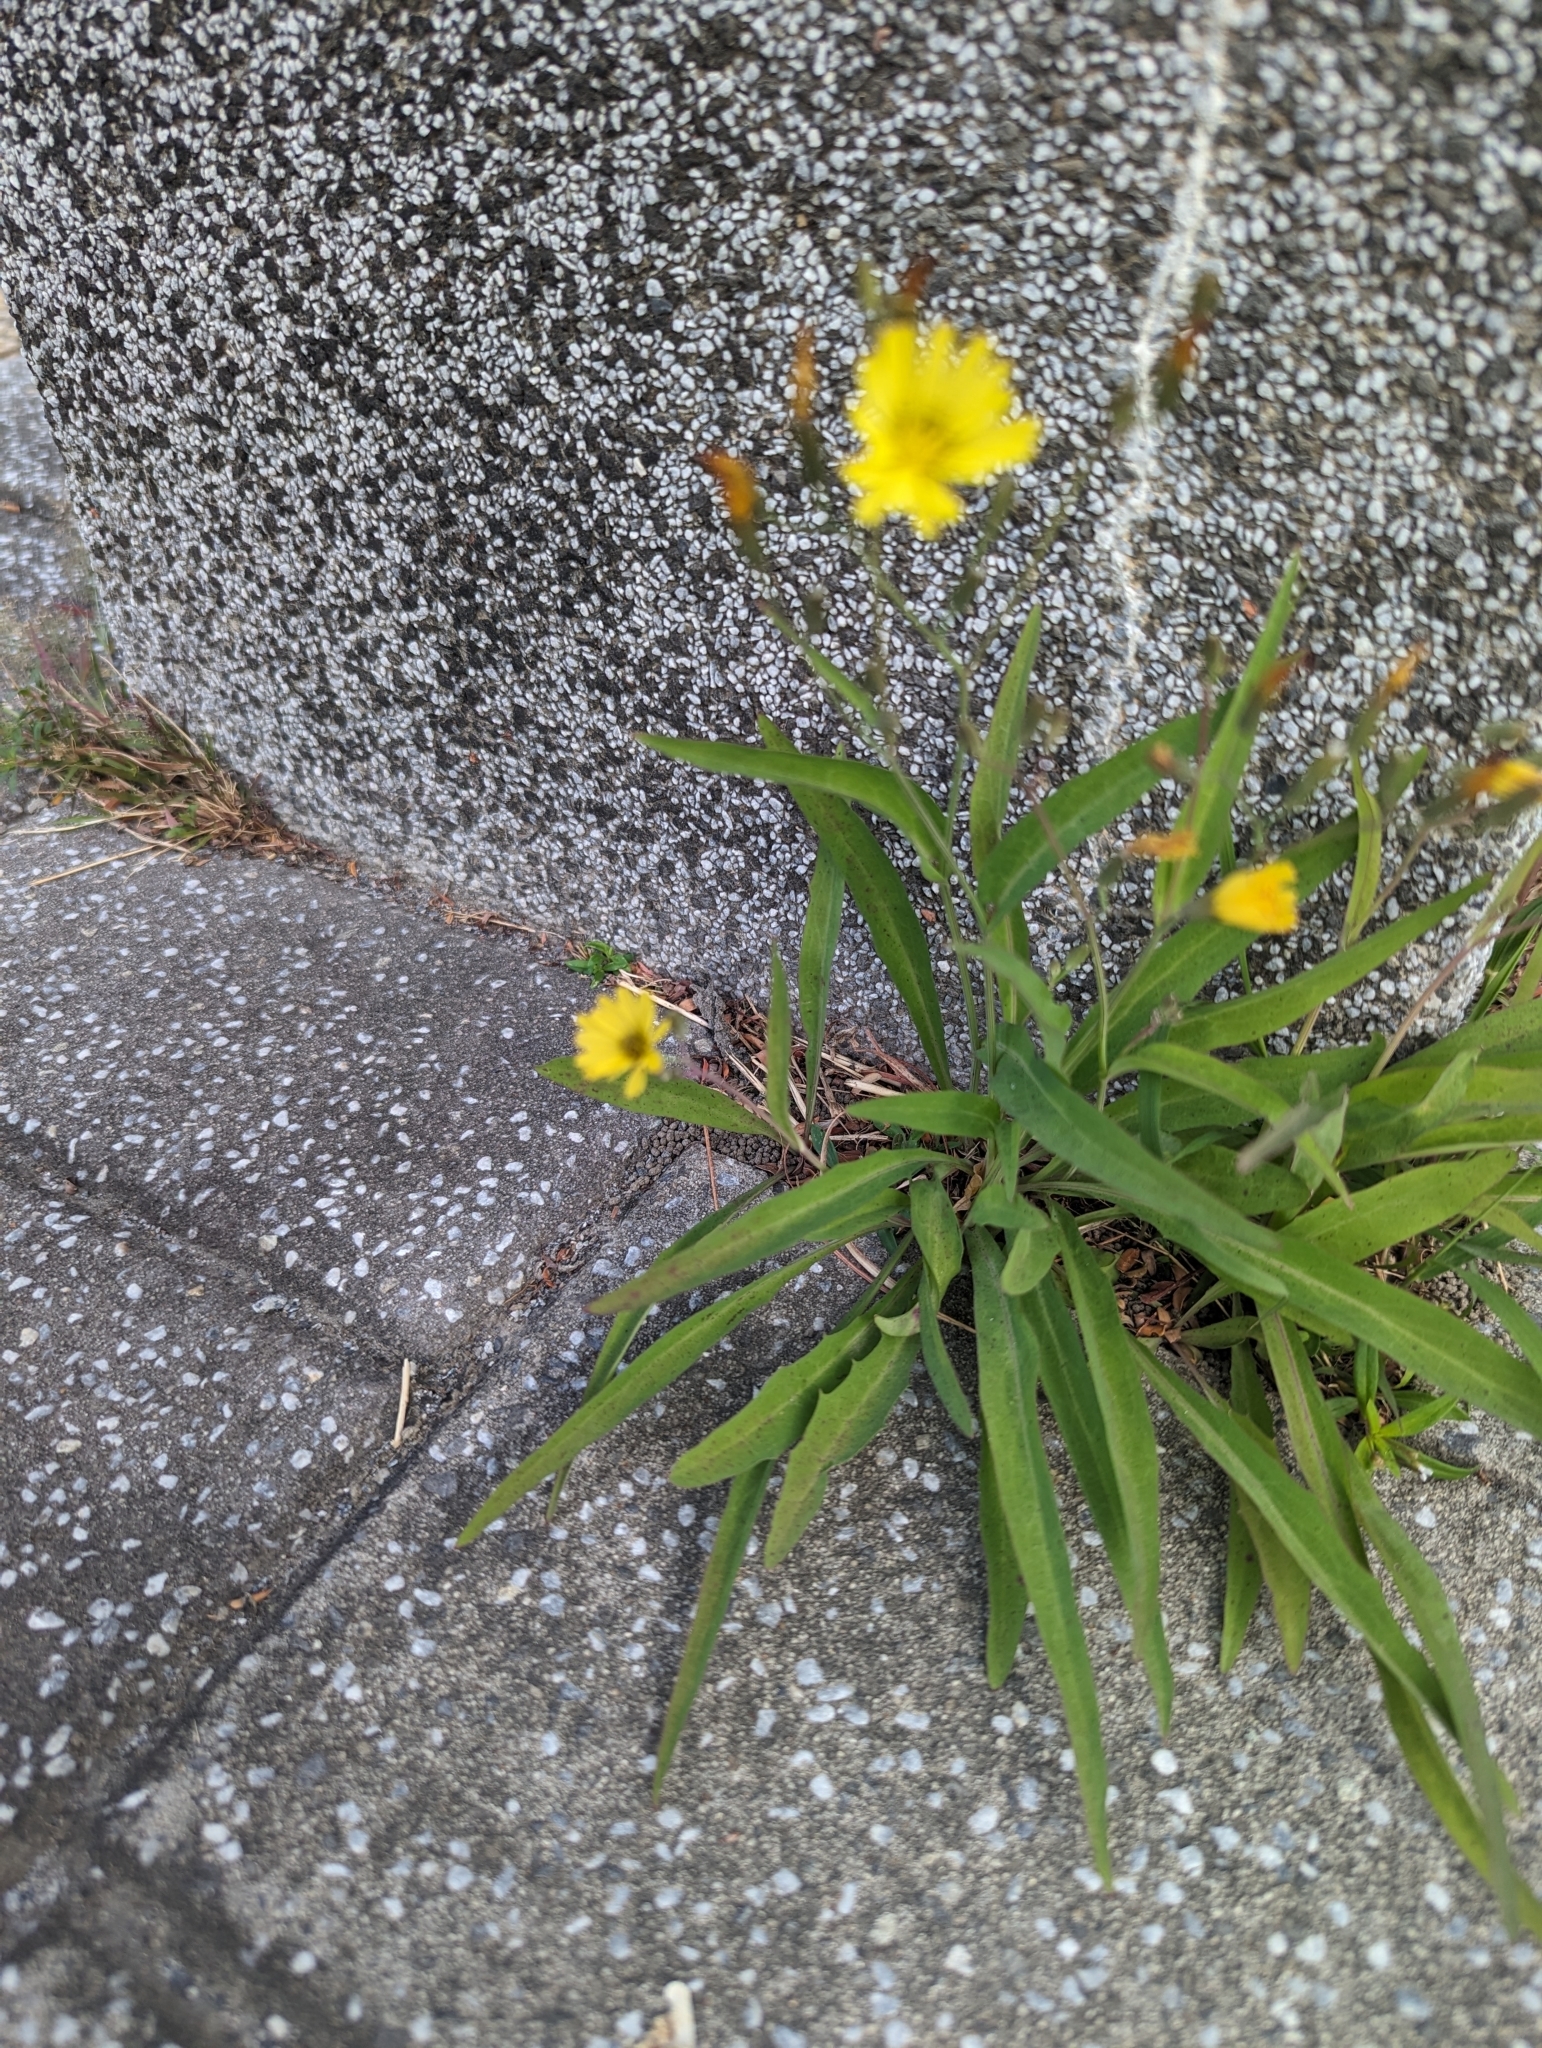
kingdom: Plantae
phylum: Tracheophyta
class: Magnoliopsida
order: Asterales
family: Asteraceae
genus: Ixeris
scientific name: Ixeris chinensis
